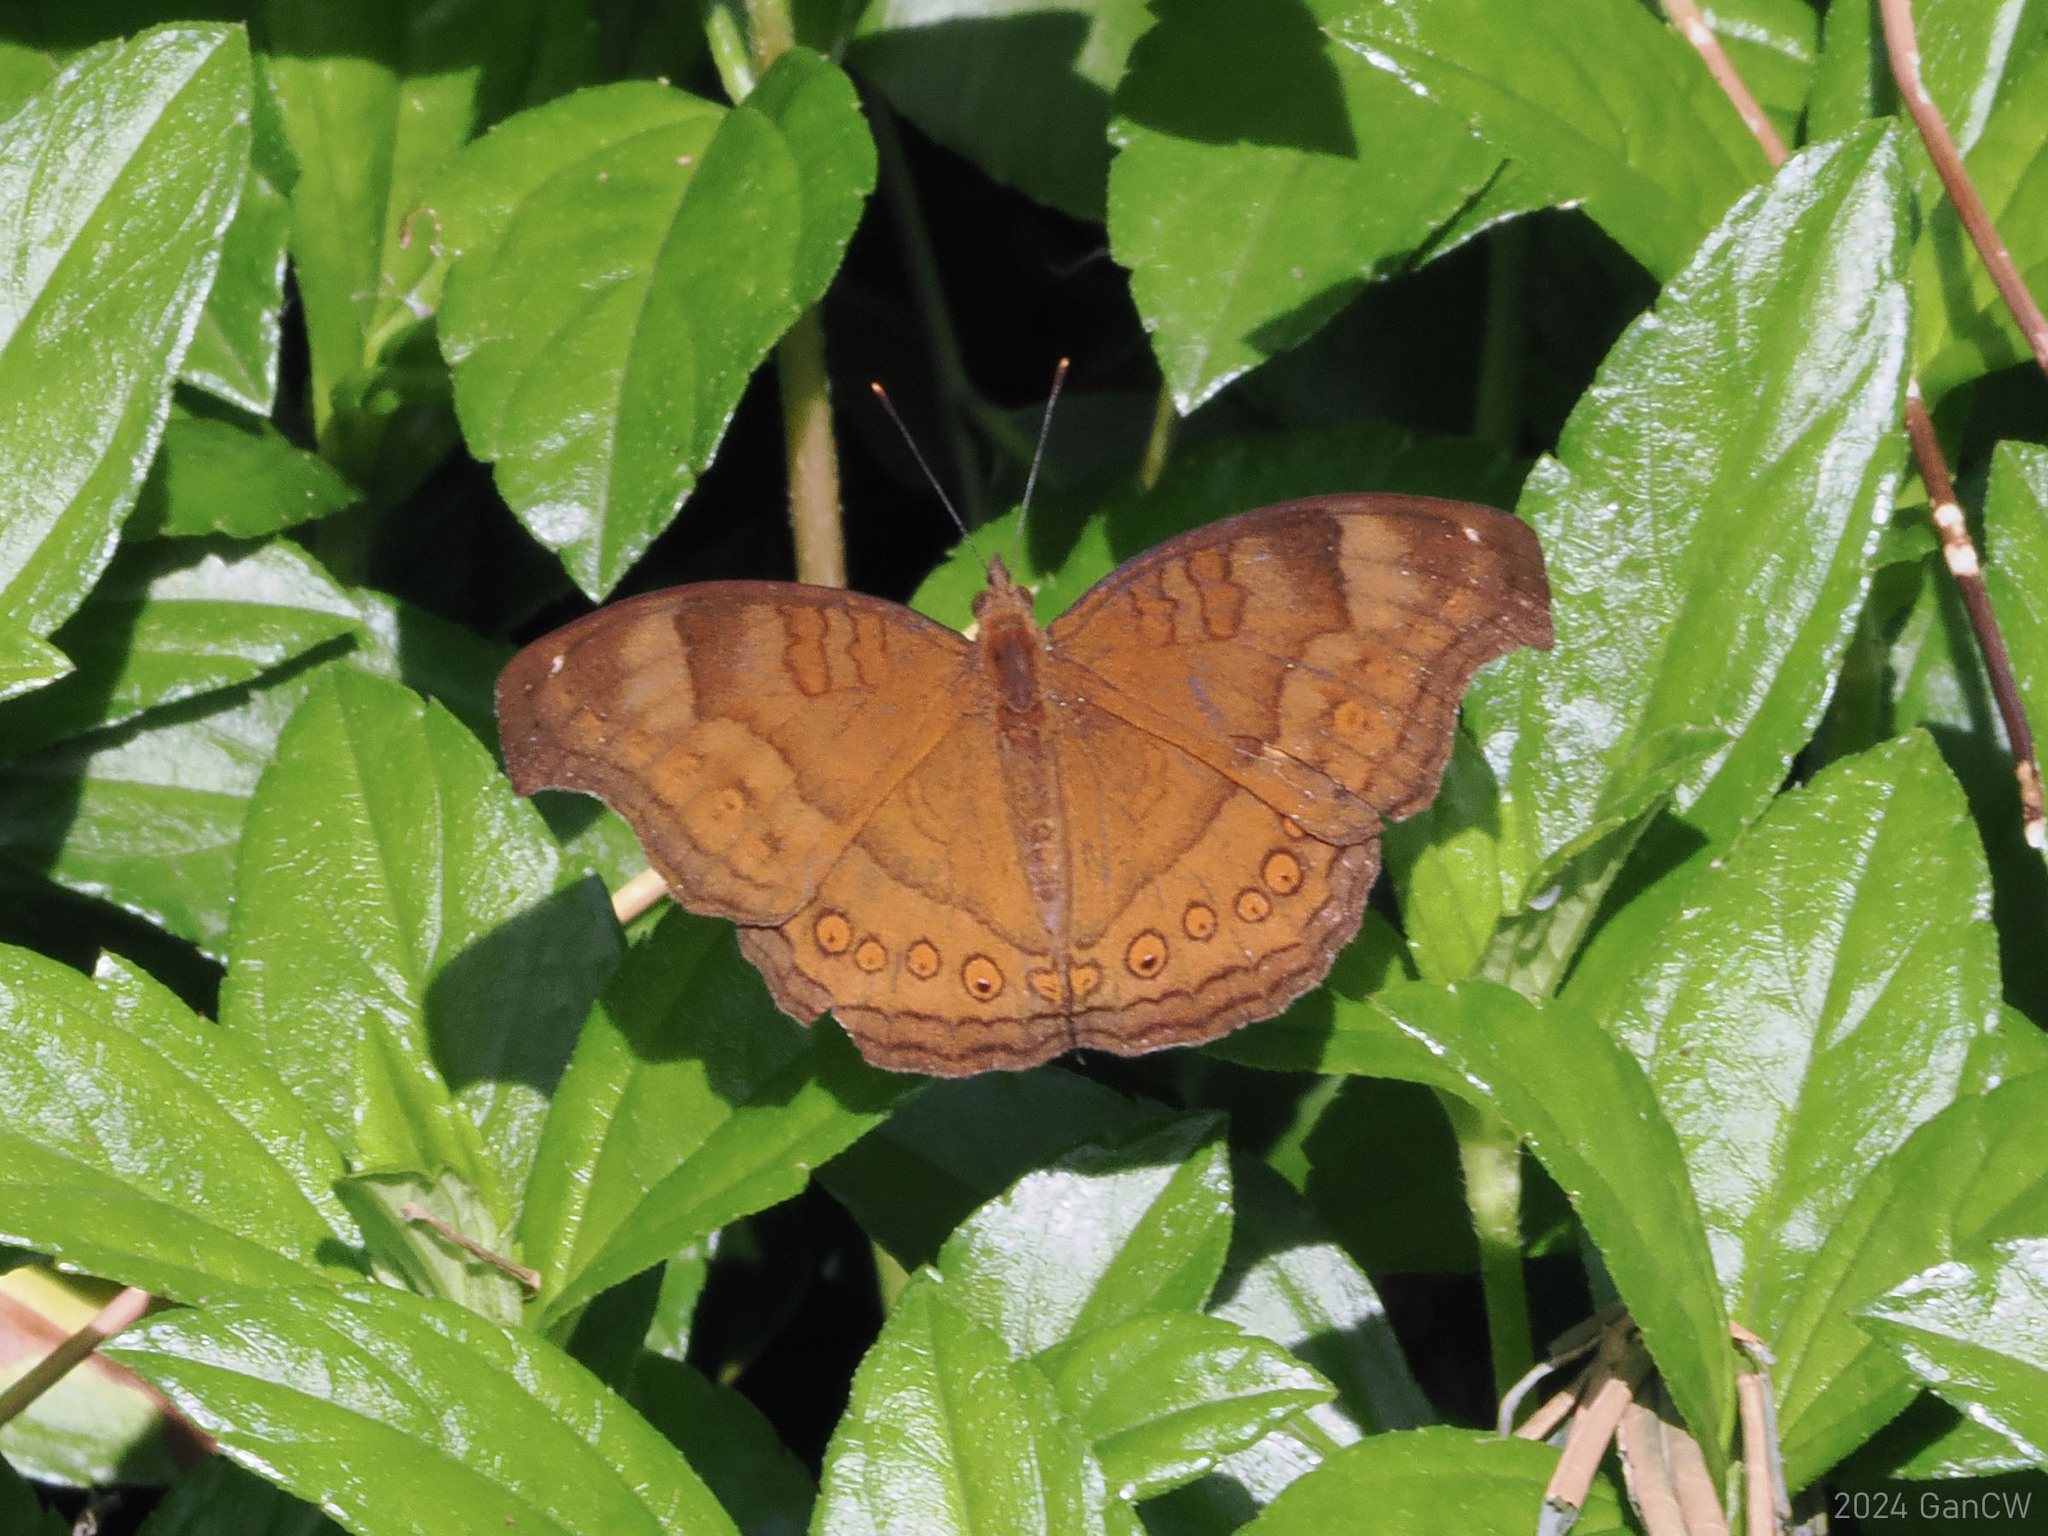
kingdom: Animalia
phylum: Arthropoda
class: Insecta
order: Lepidoptera
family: Nymphalidae
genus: Junonia
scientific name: Junonia hedonia
